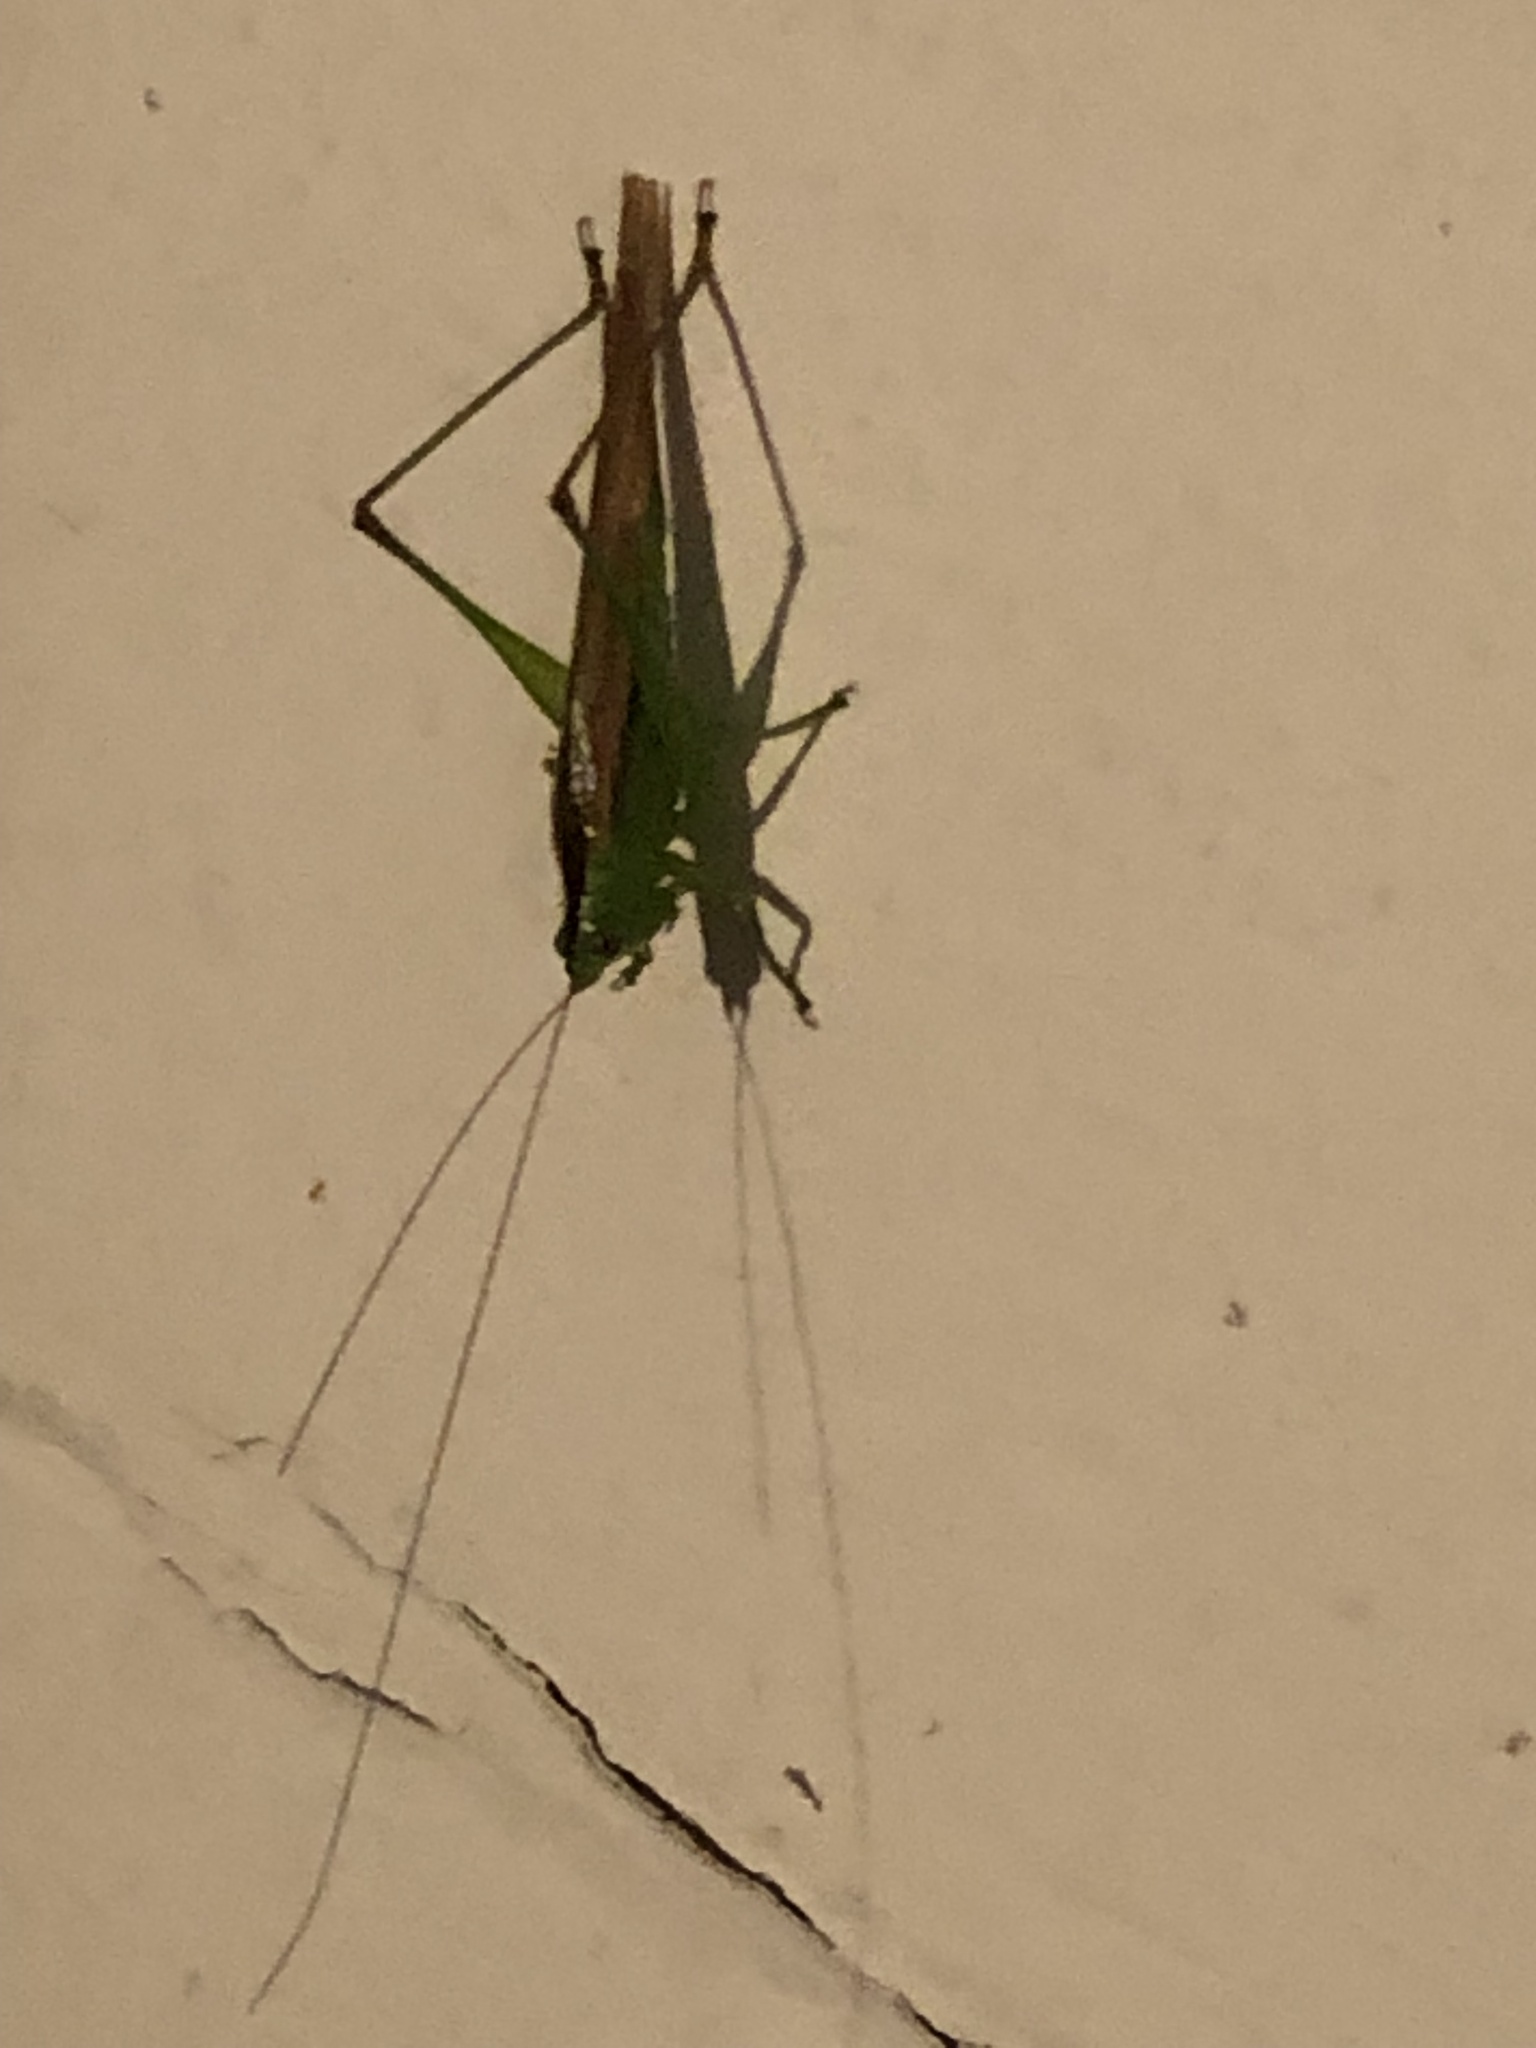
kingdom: Animalia
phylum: Arthropoda
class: Insecta
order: Orthoptera
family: Tettigoniidae
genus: Conocephalus
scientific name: Conocephalus fasciatus
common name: Slender meadow katydid
